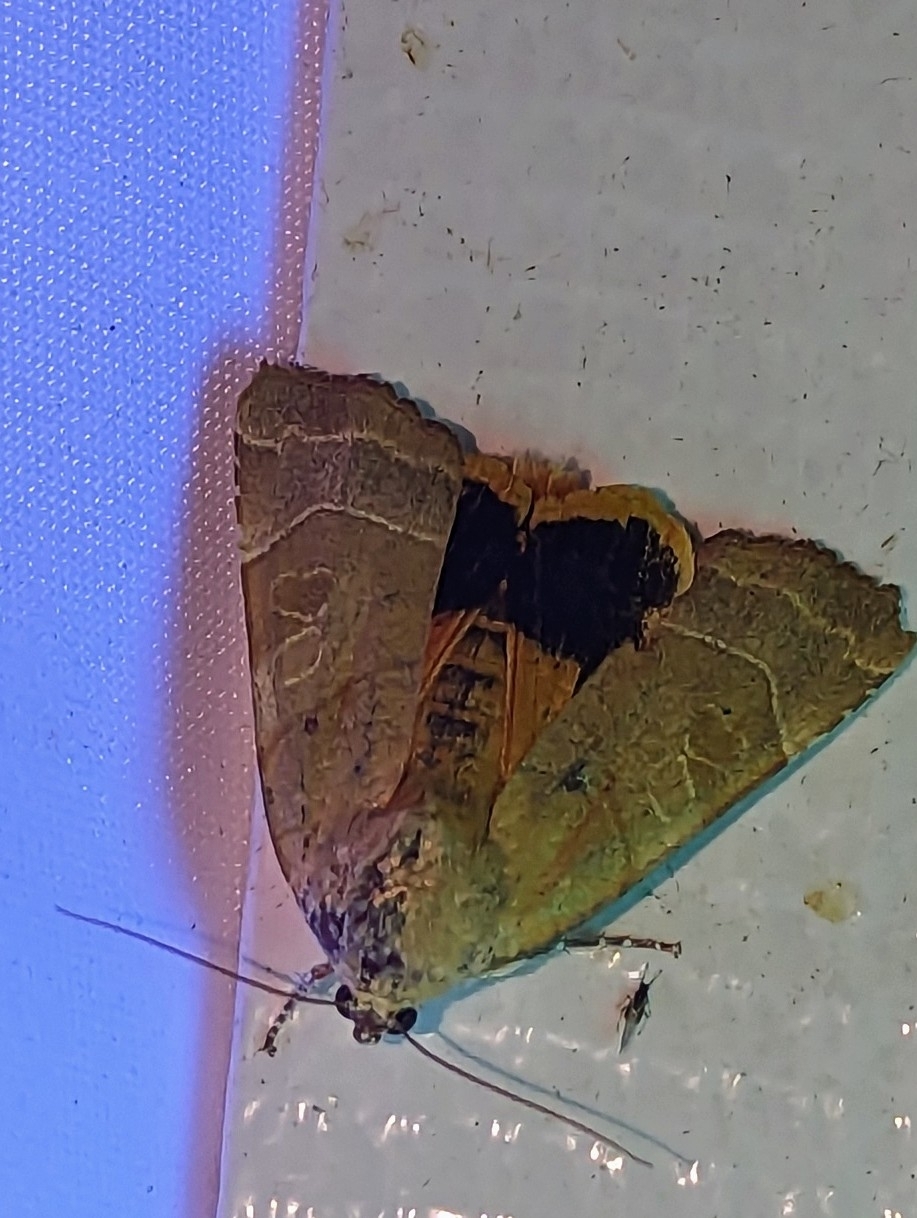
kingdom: Animalia
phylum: Arthropoda
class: Insecta
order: Lepidoptera
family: Noctuidae
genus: Noctua
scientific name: Noctua fimbriata
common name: Broad-bordered yellow underwing
